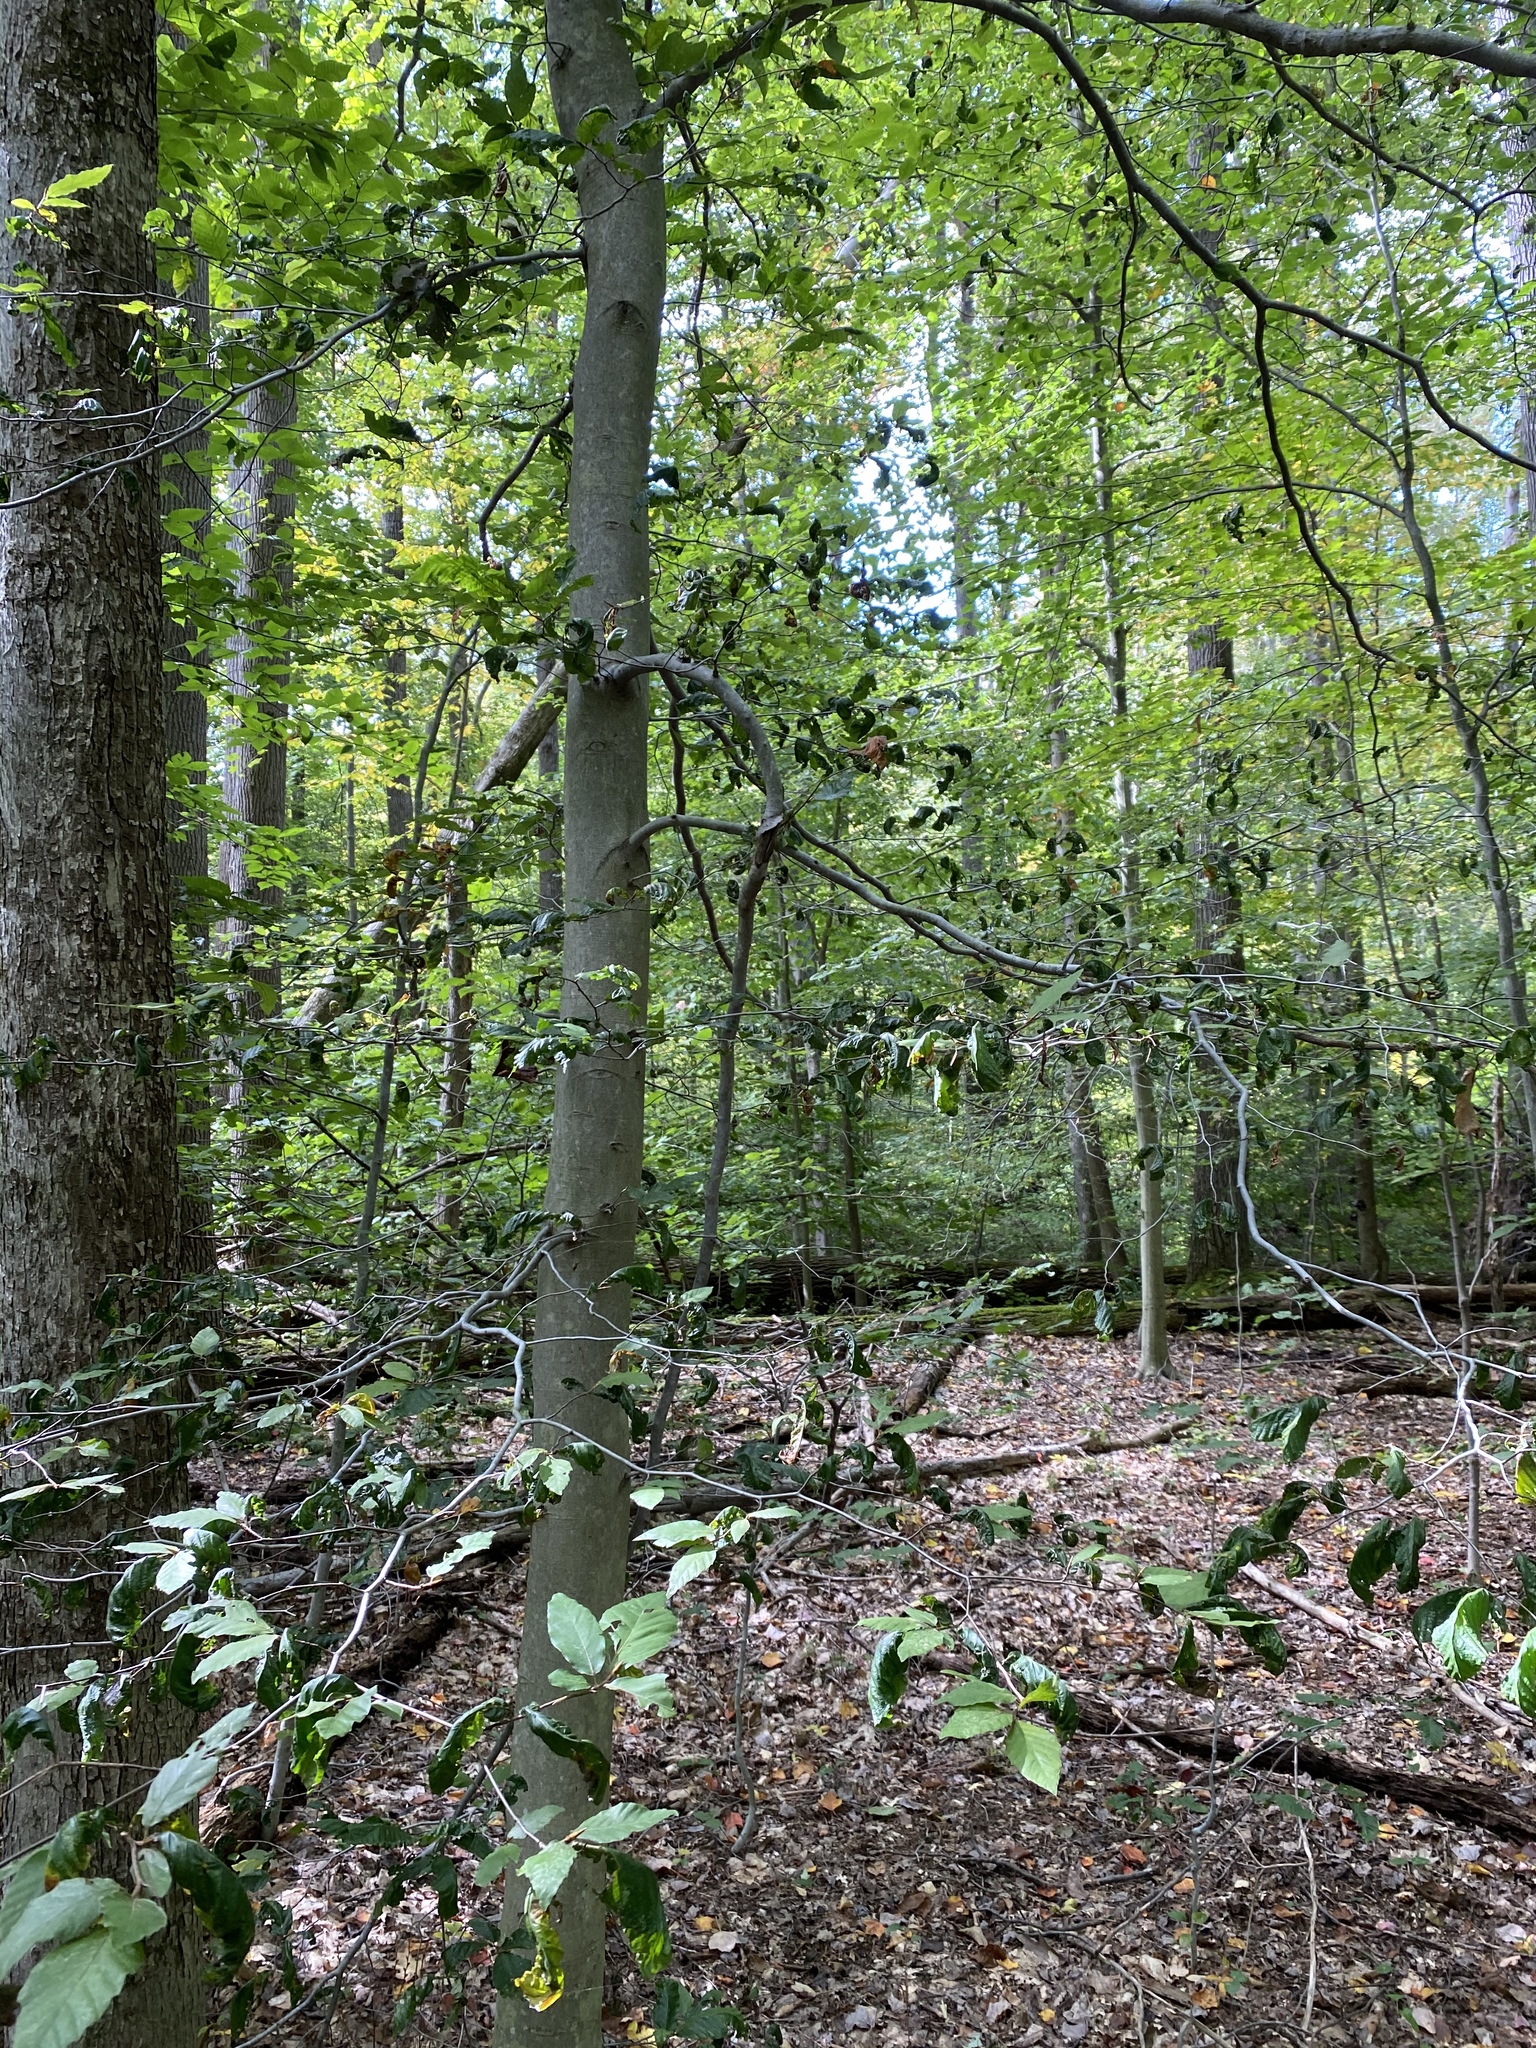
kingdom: Plantae
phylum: Tracheophyta
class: Magnoliopsida
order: Fagales
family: Fagaceae
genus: Fagus
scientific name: Fagus grandifolia
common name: American beech
